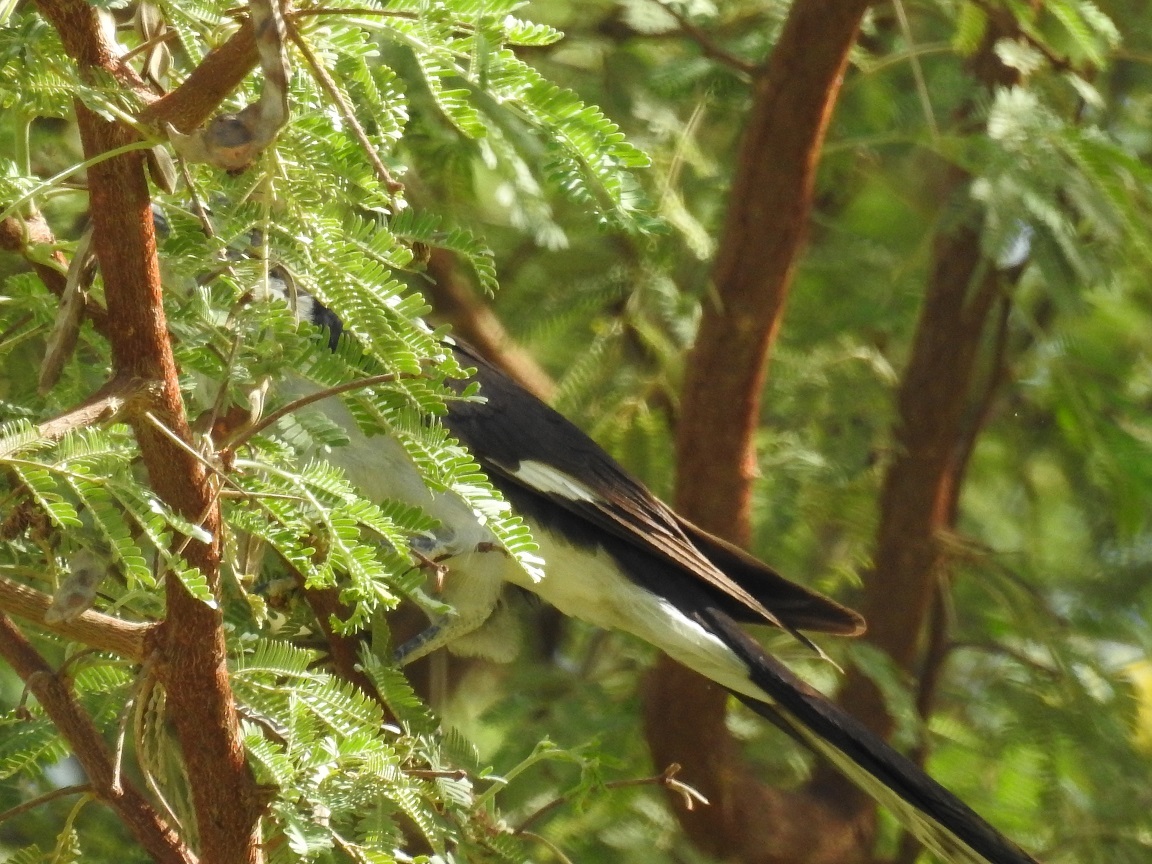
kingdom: Animalia
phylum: Chordata
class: Aves
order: Cuculiformes
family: Cuculidae
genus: Clamator
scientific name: Clamator jacobinus
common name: Jacobin cuckoo
